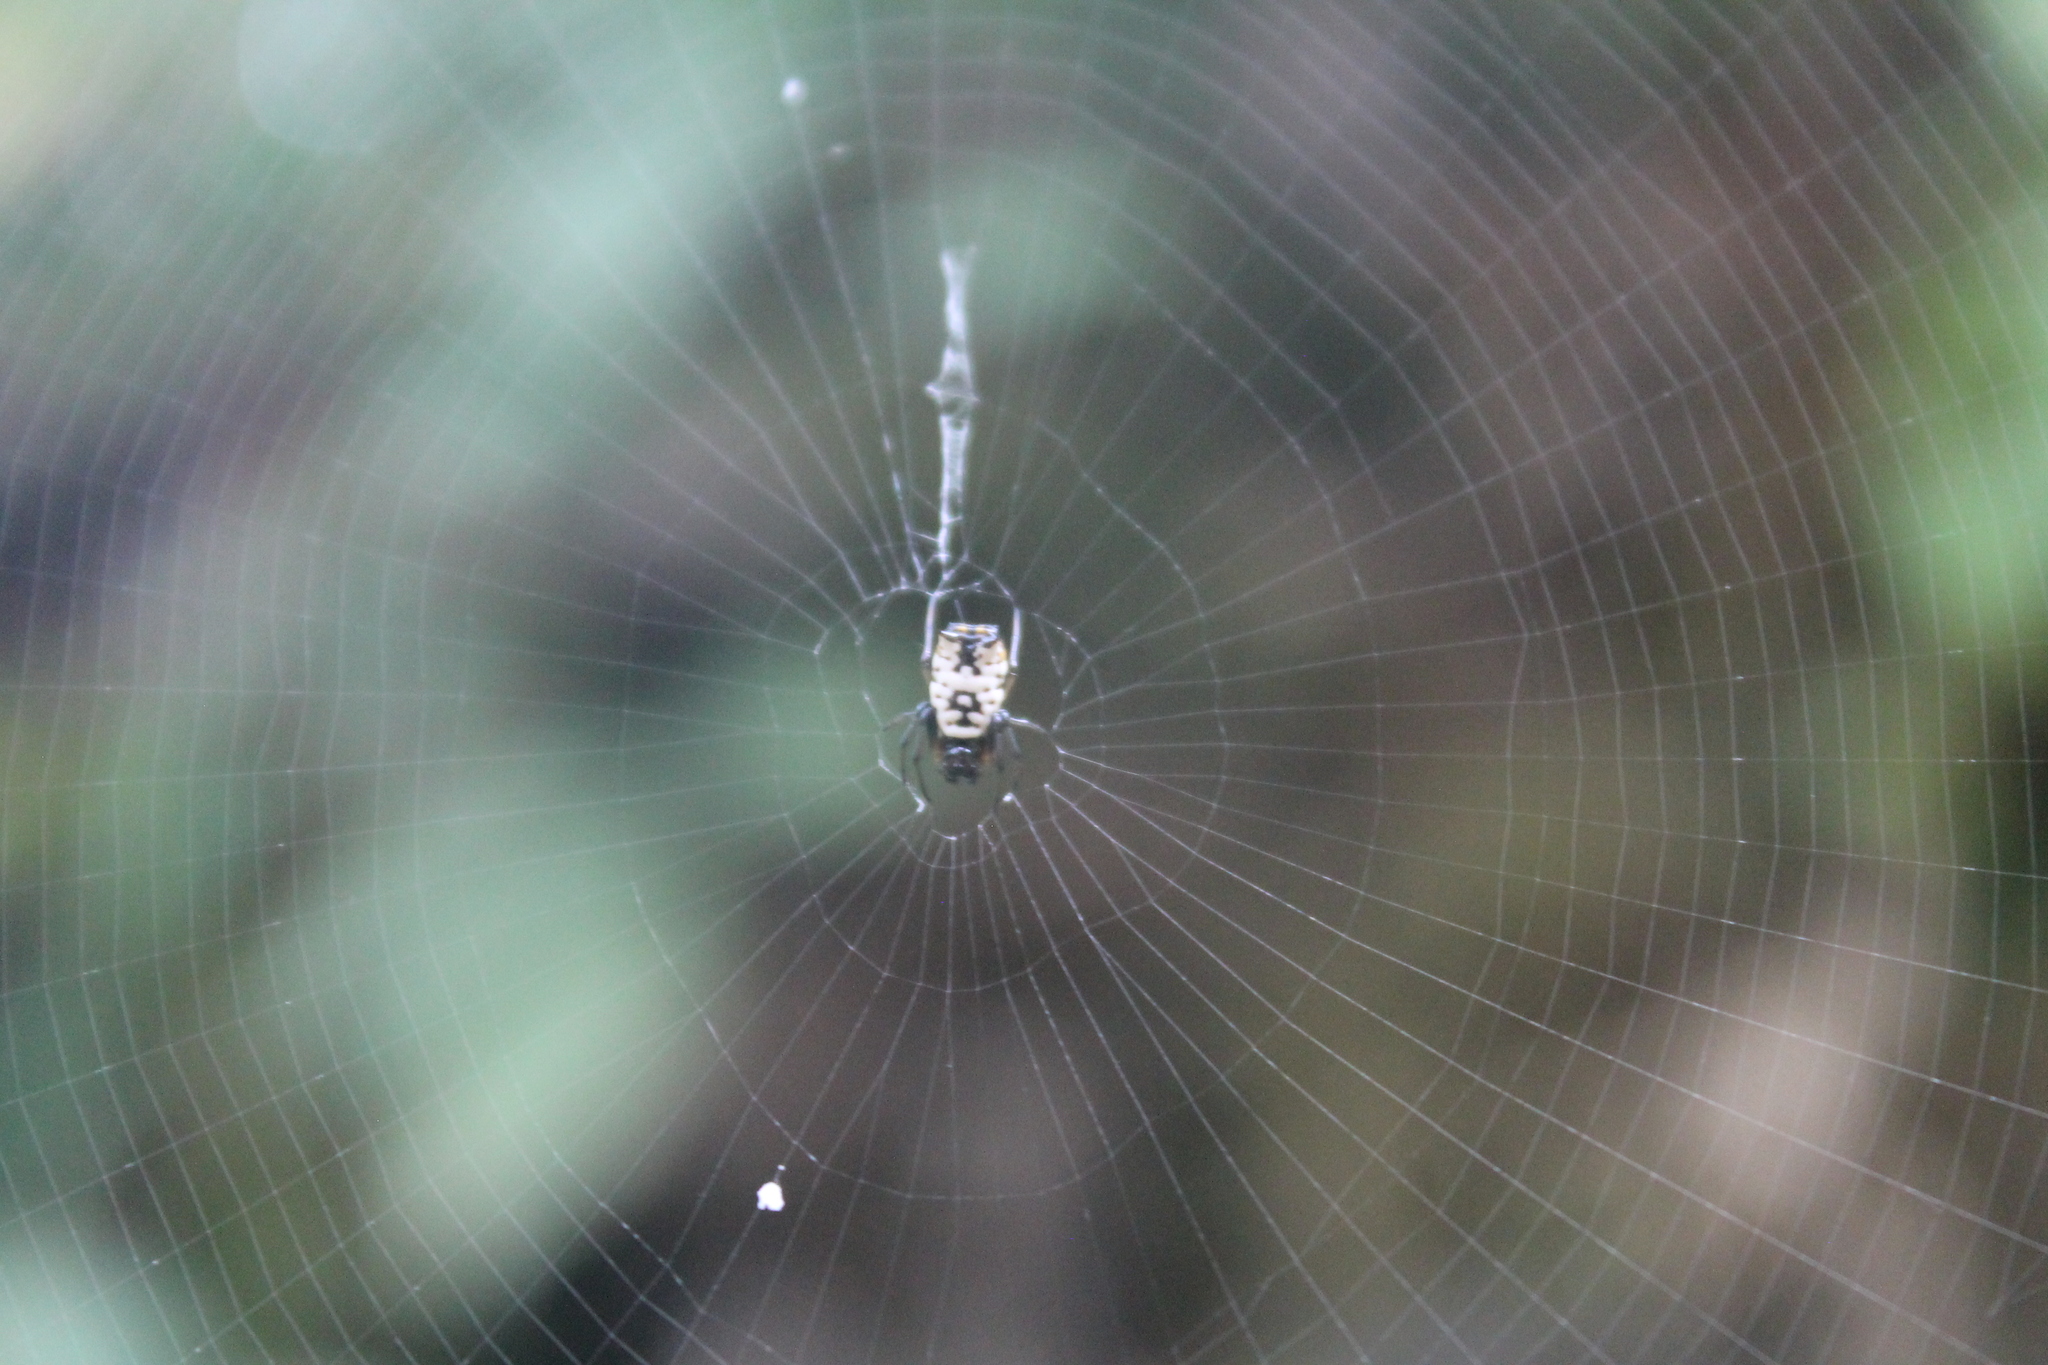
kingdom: Animalia
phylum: Arthropoda
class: Arachnida
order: Araneae
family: Araneidae
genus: Micrathena
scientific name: Micrathena mitrata
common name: Orb weavers
